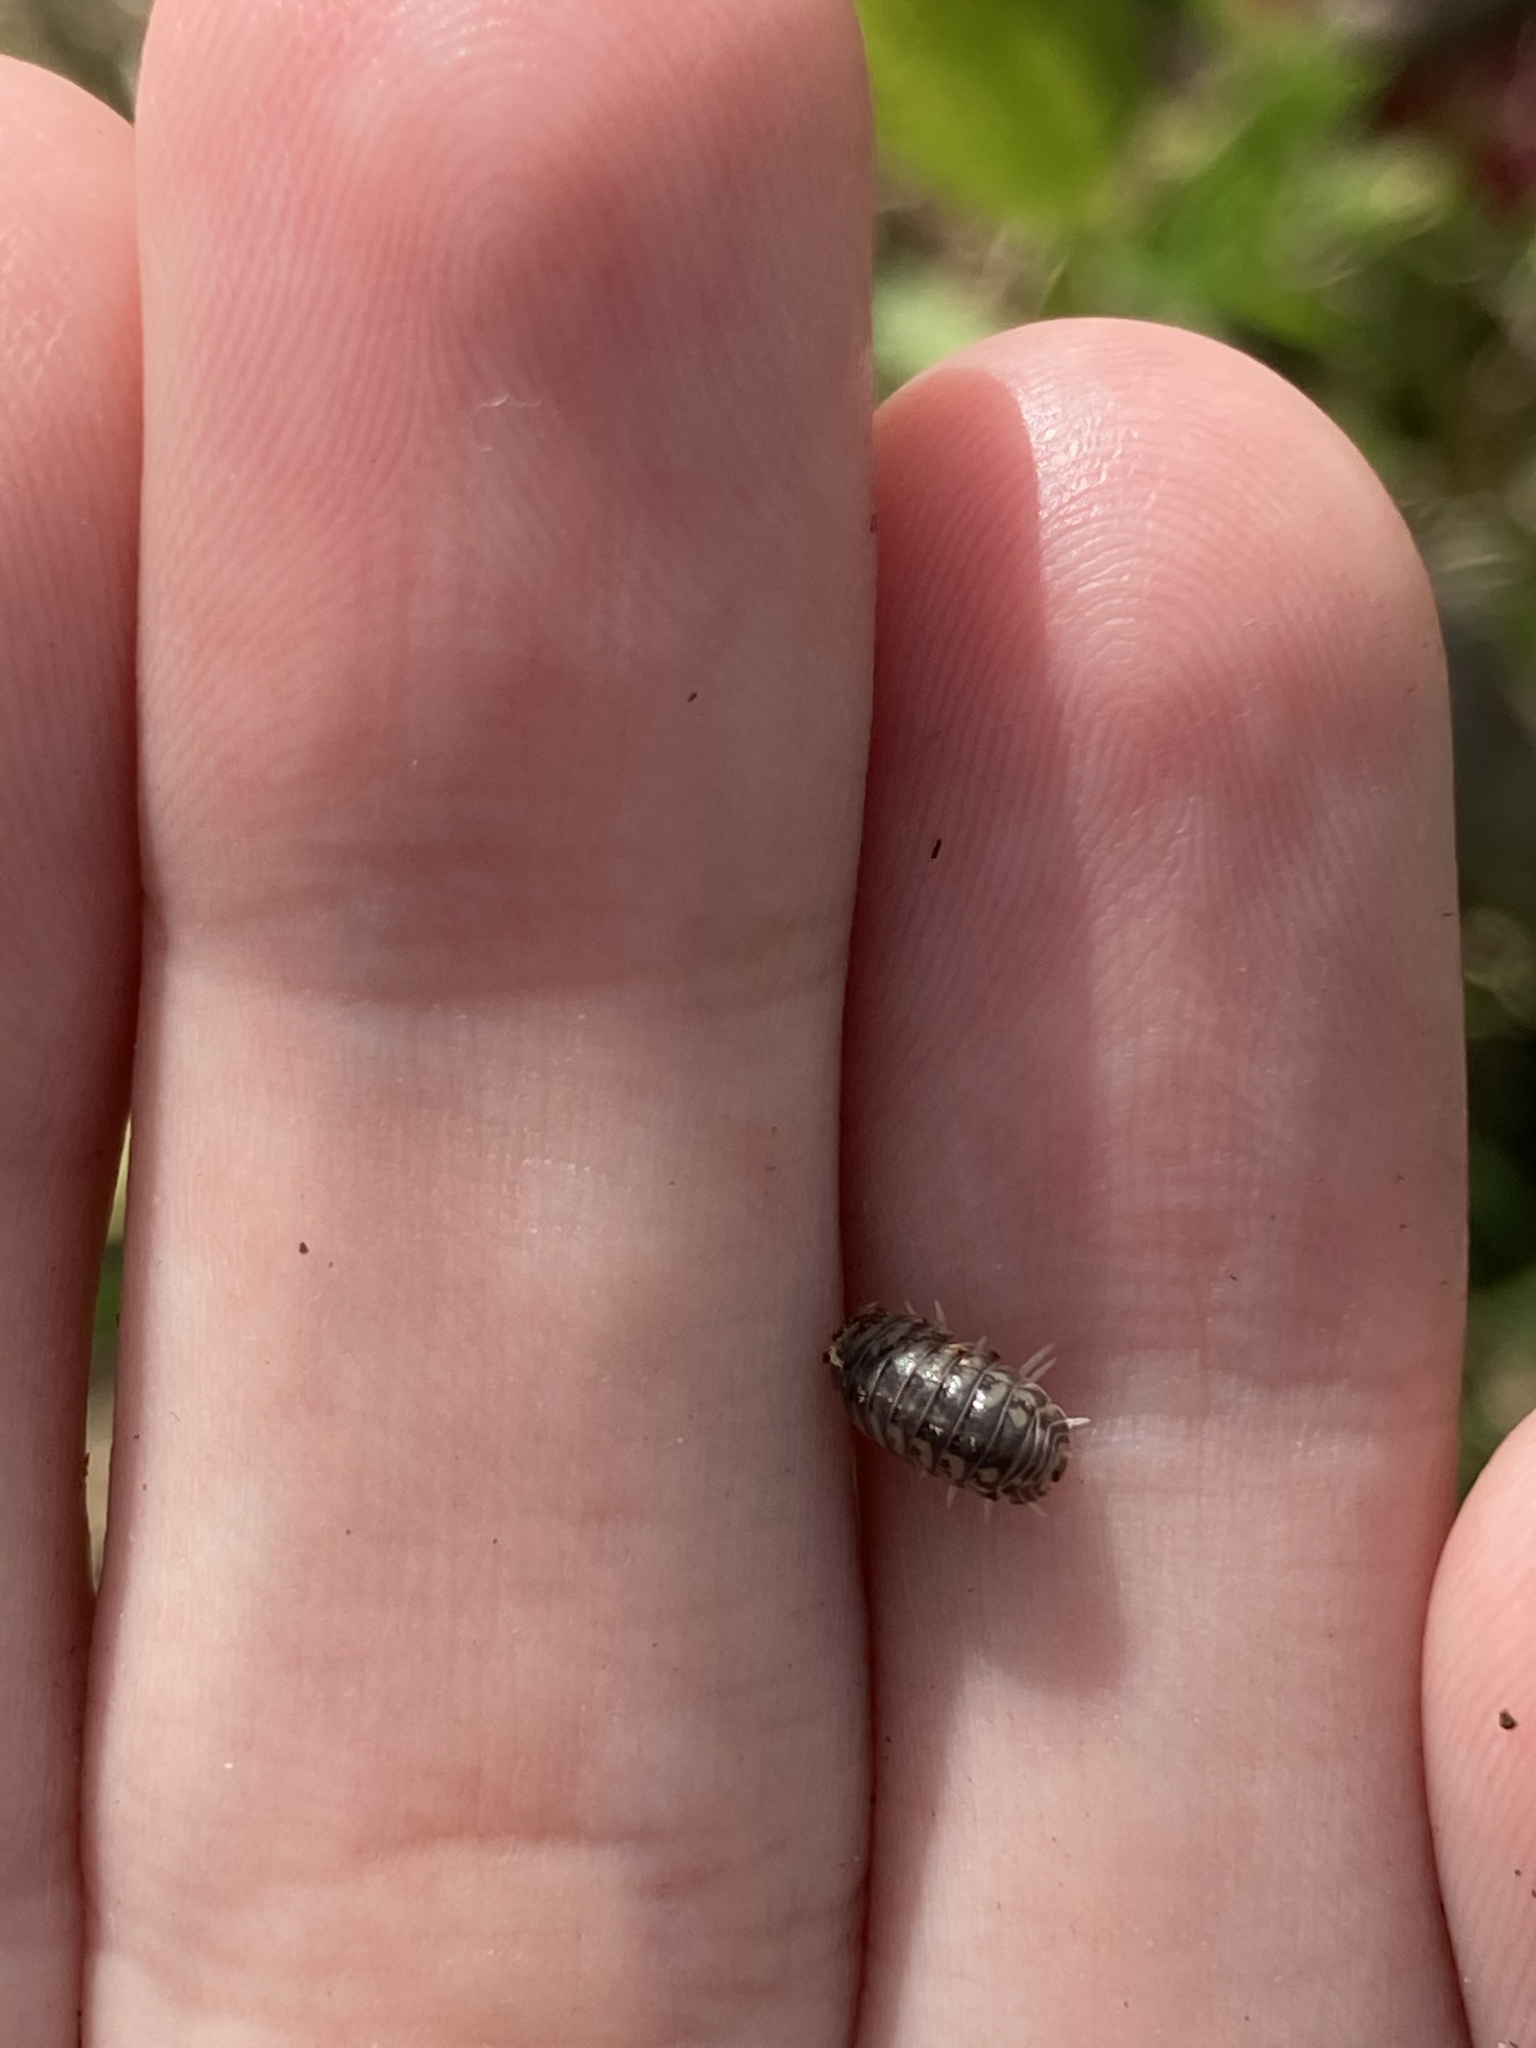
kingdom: Animalia
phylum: Arthropoda
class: Malacostraca
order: Isopoda
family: Armadillidae
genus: Venezillo
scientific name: Venezillo parvus
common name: Pillbug
